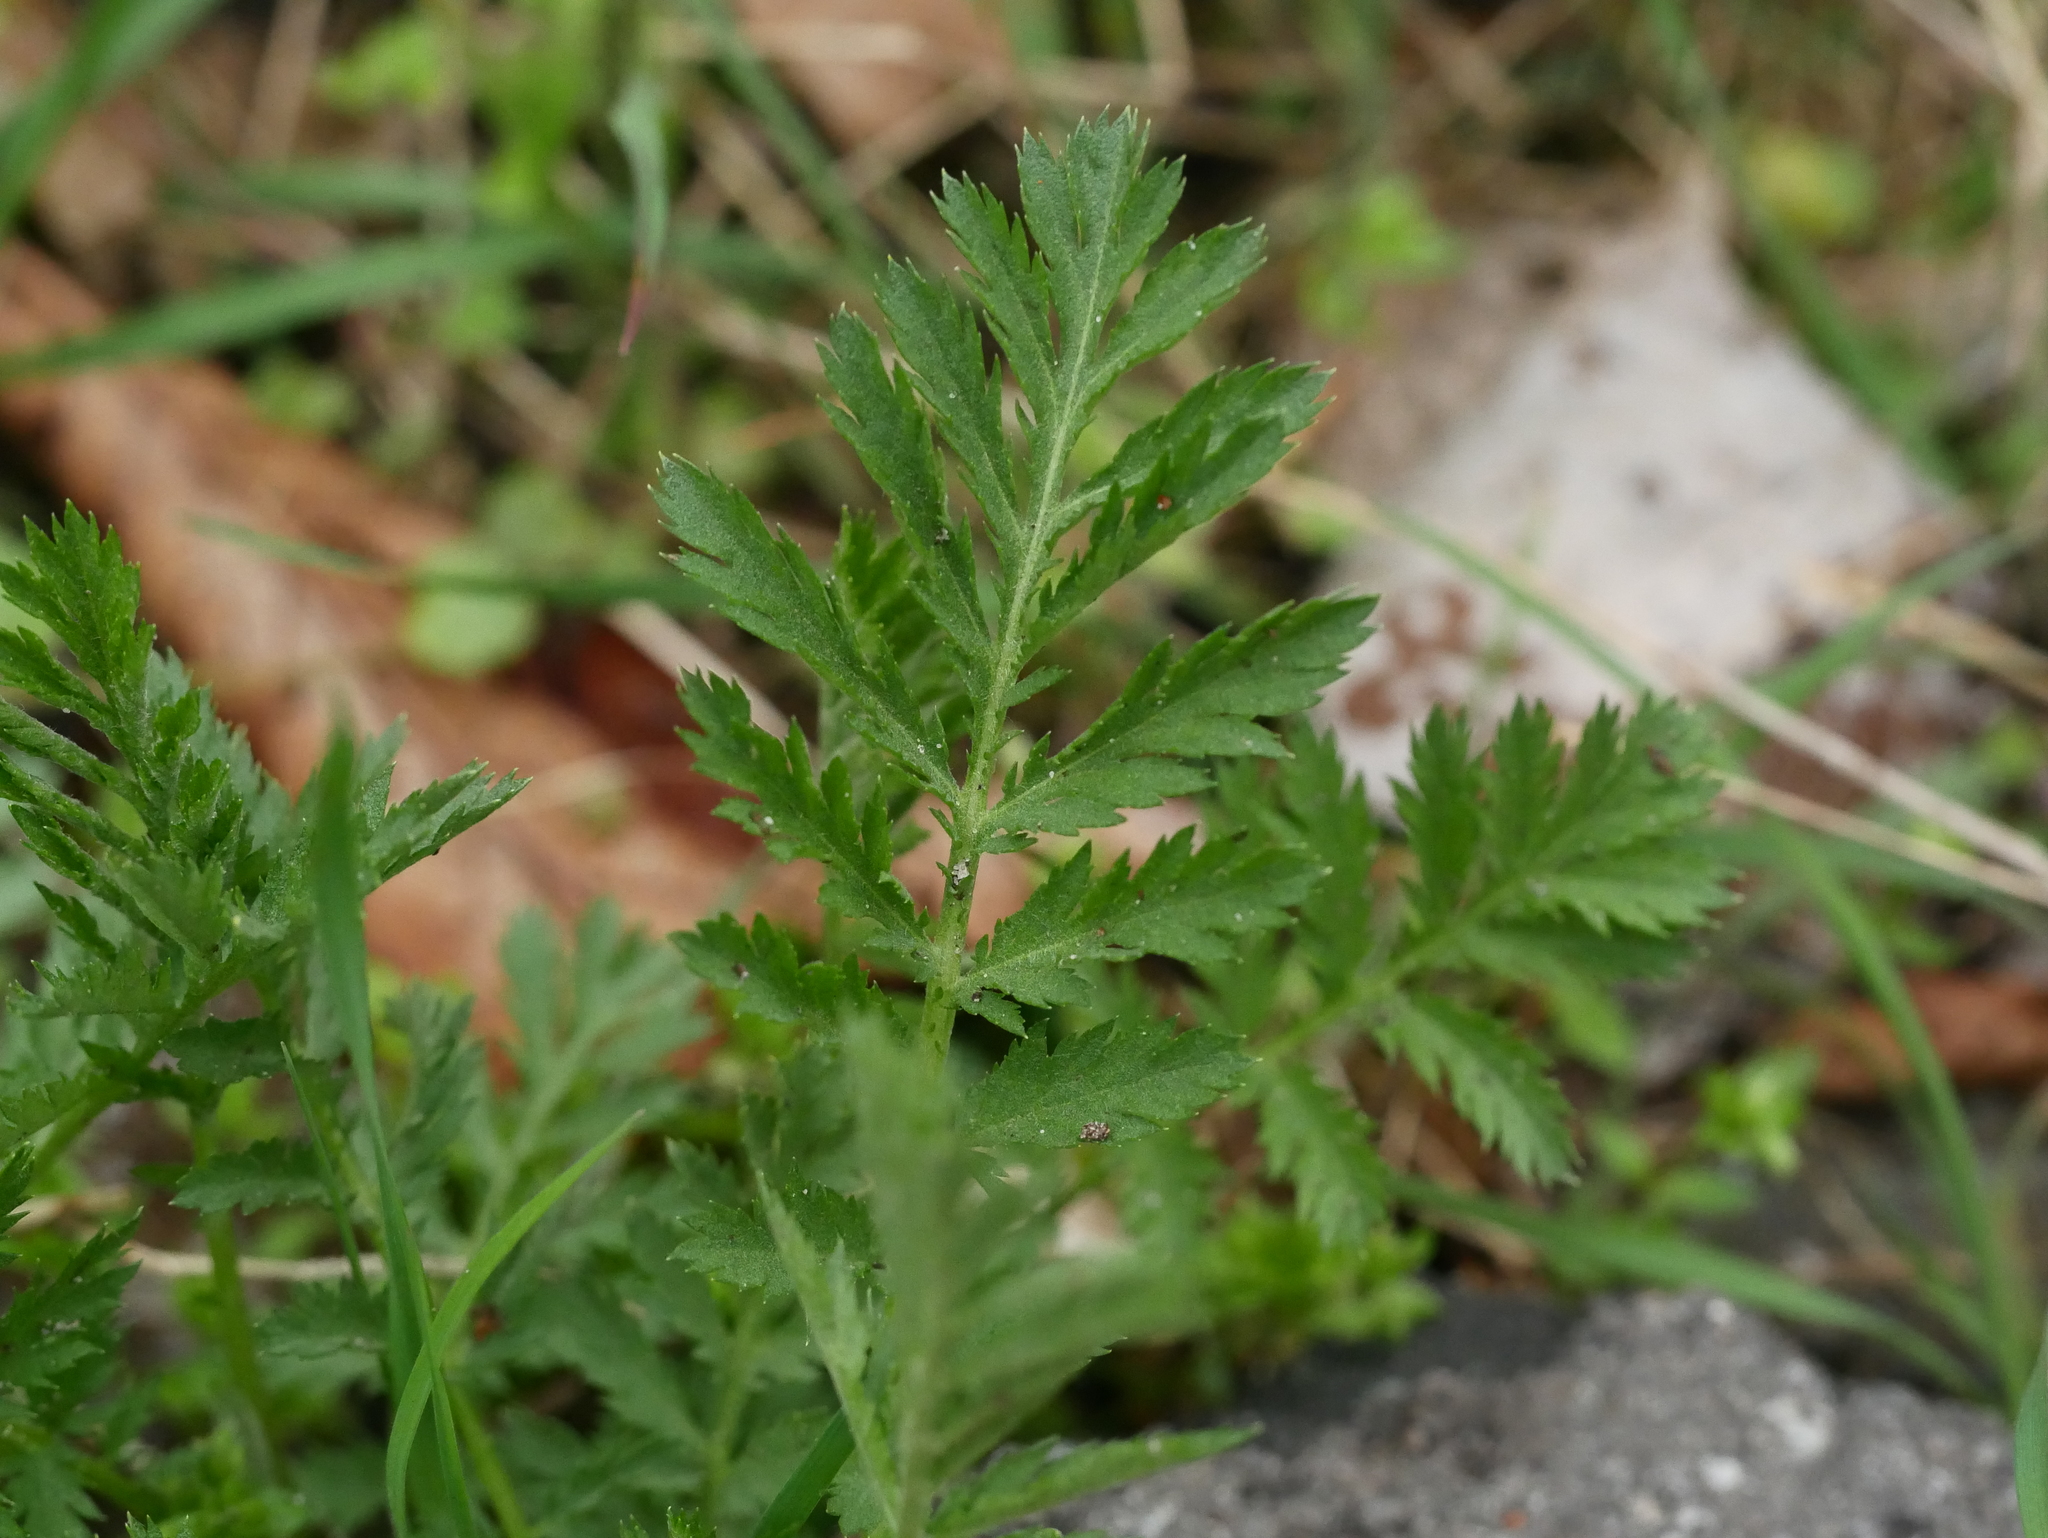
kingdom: Plantae
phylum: Tracheophyta
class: Magnoliopsida
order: Asterales
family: Asteraceae
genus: Tanacetum
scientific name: Tanacetum vulgare
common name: Common tansy
